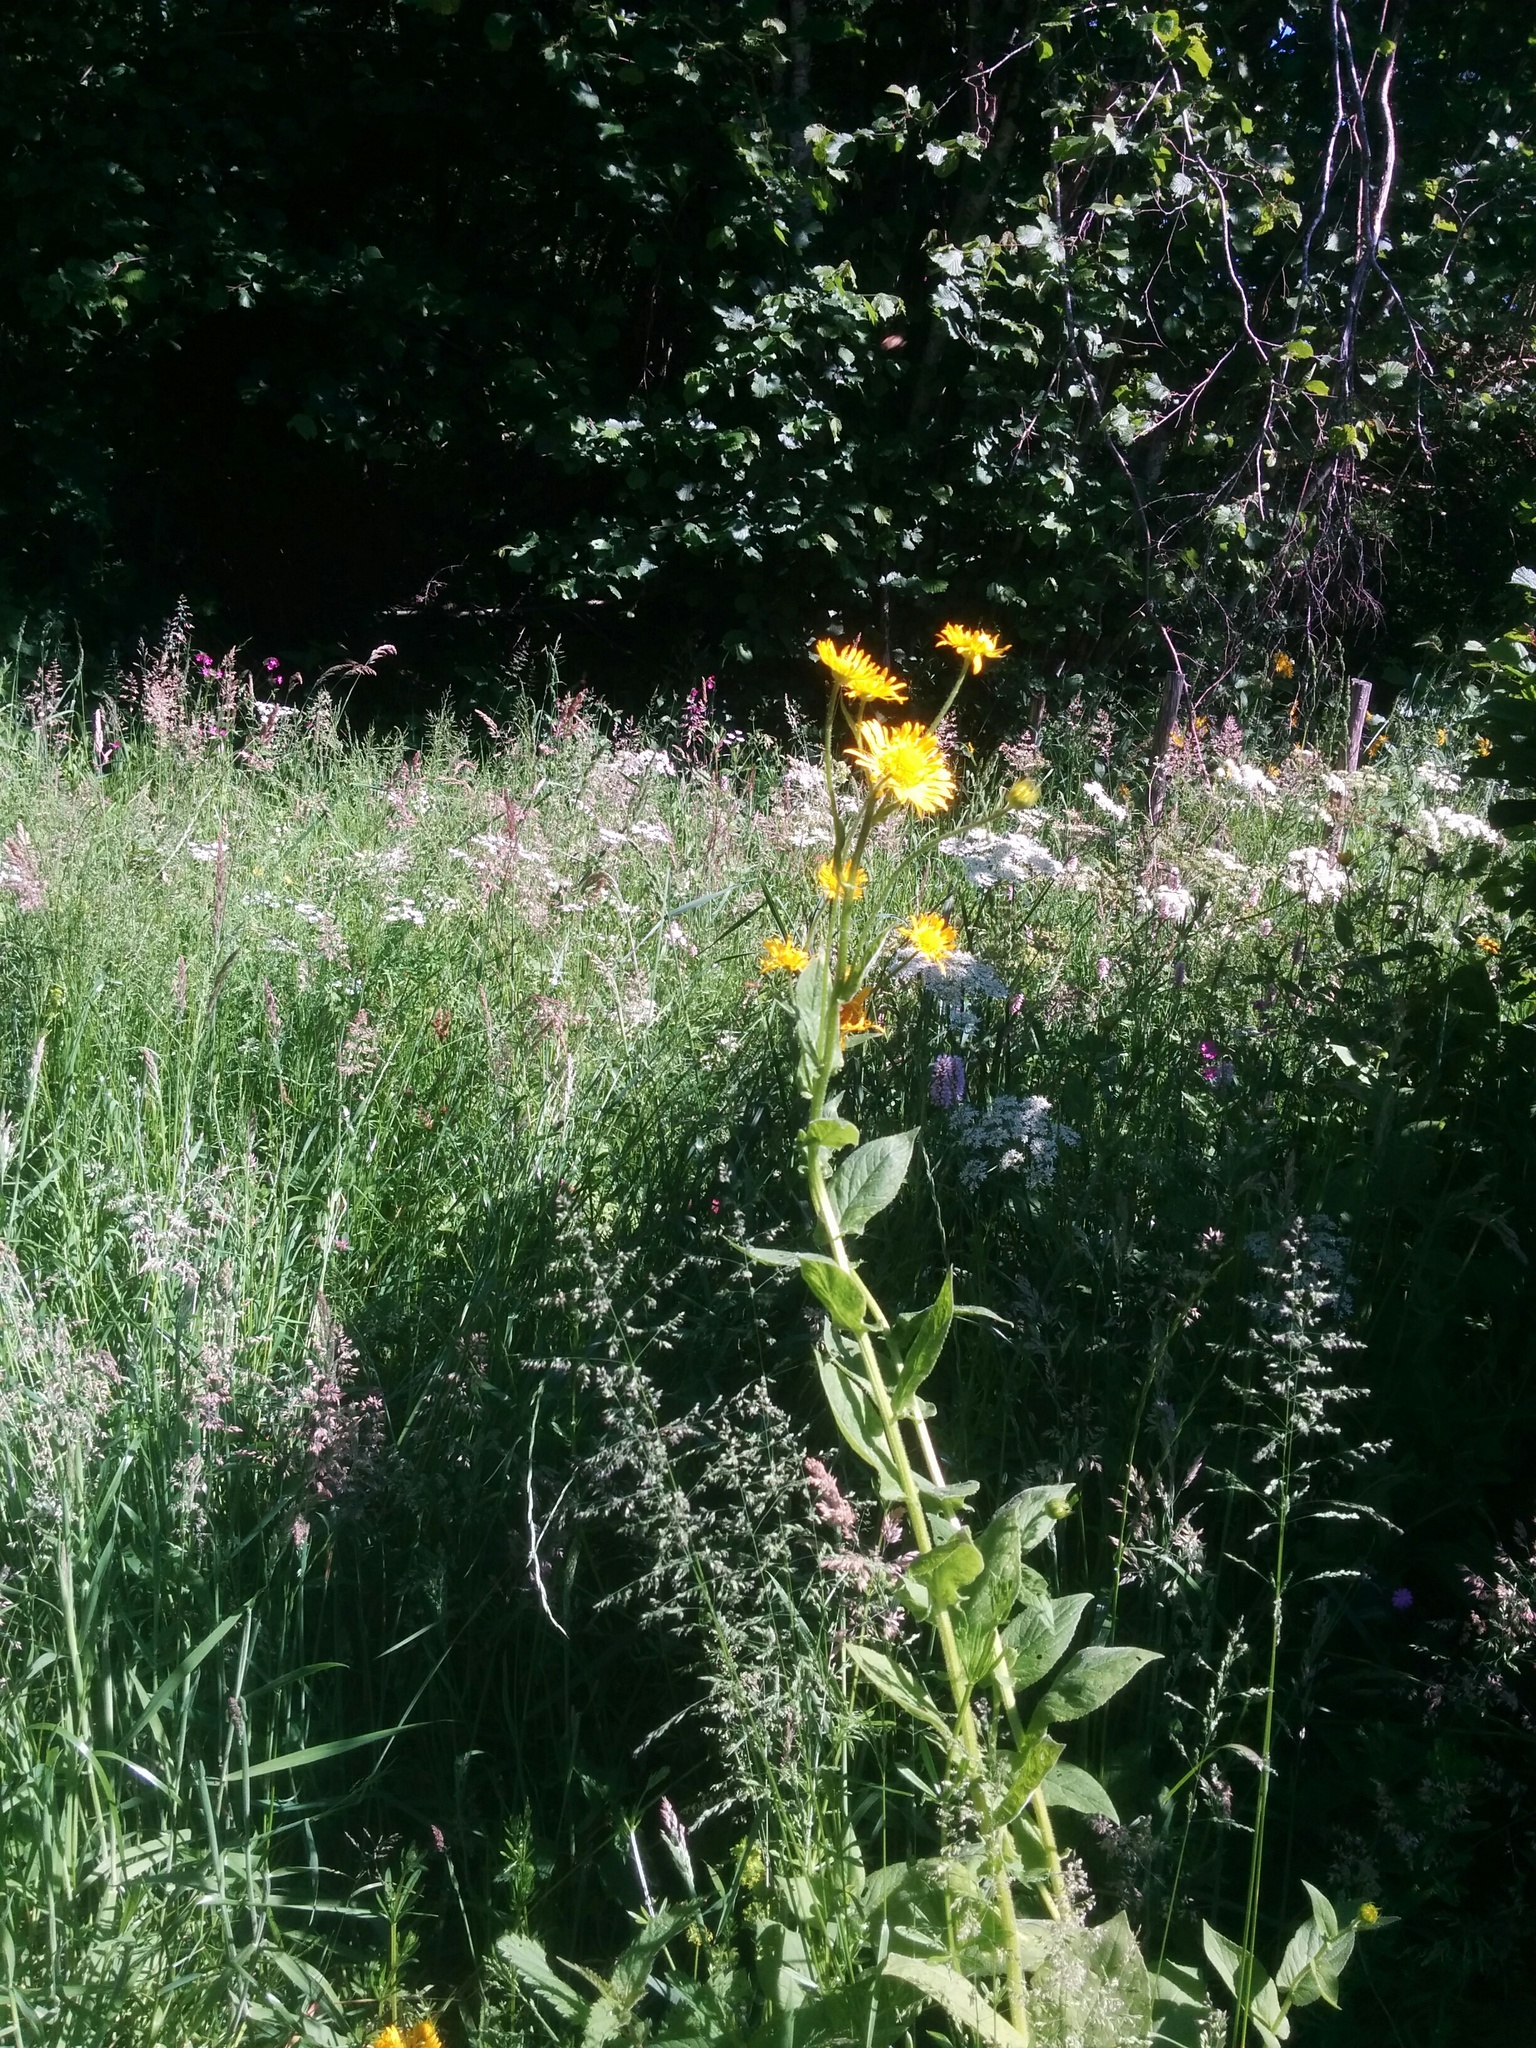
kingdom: Plantae
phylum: Tracheophyta
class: Magnoliopsida
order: Asterales
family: Asteraceae
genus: Doronicum
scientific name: Doronicum austriacum
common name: Austrian leopard's-bane
